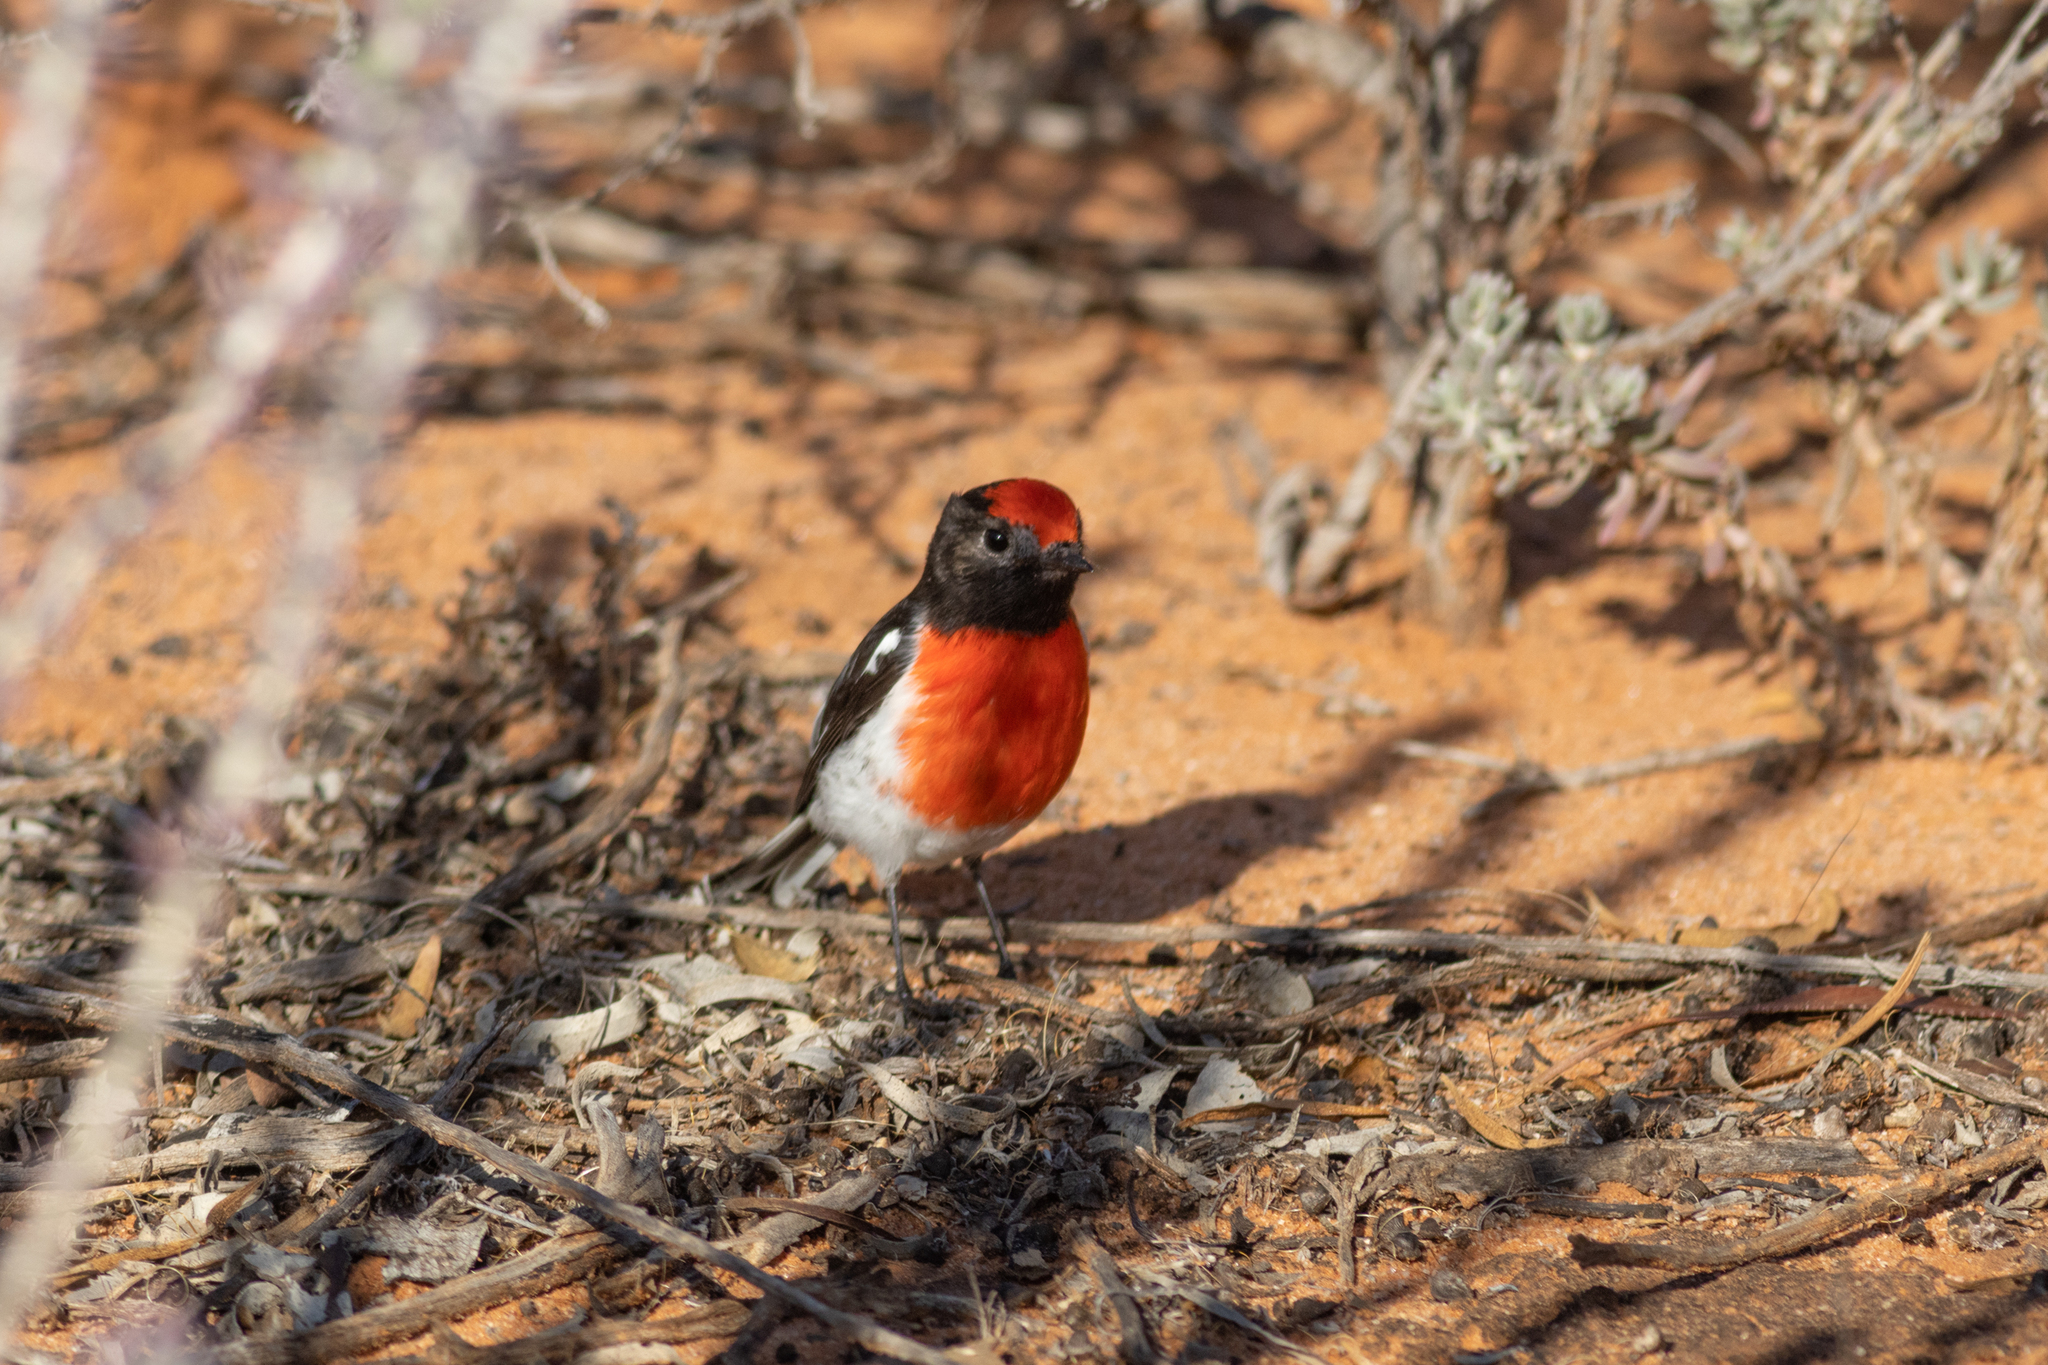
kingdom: Animalia
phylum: Chordata
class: Aves
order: Passeriformes
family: Petroicidae
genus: Petroica
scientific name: Petroica goodenovii
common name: Red-capped robin
